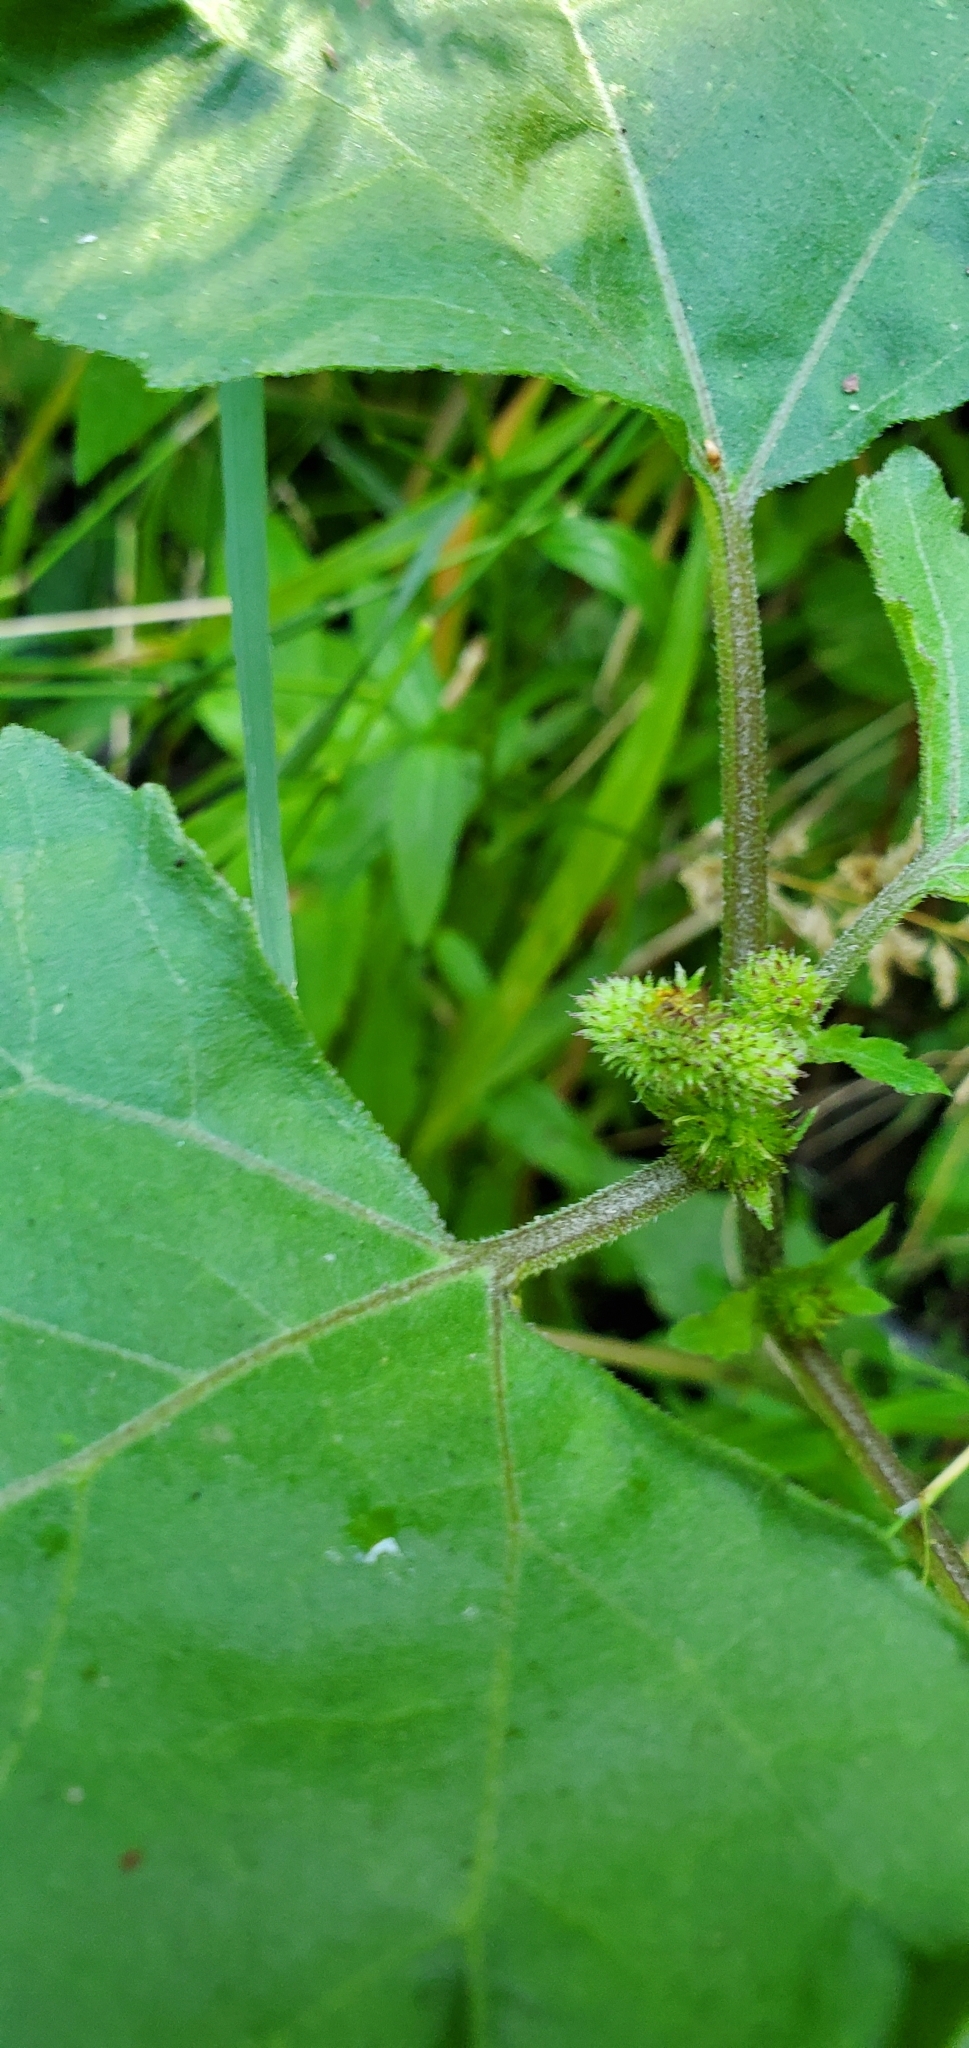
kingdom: Plantae
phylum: Tracheophyta
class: Magnoliopsida
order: Asterales
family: Asteraceae
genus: Xanthium
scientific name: Xanthium strumarium
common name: Rough cocklebur
